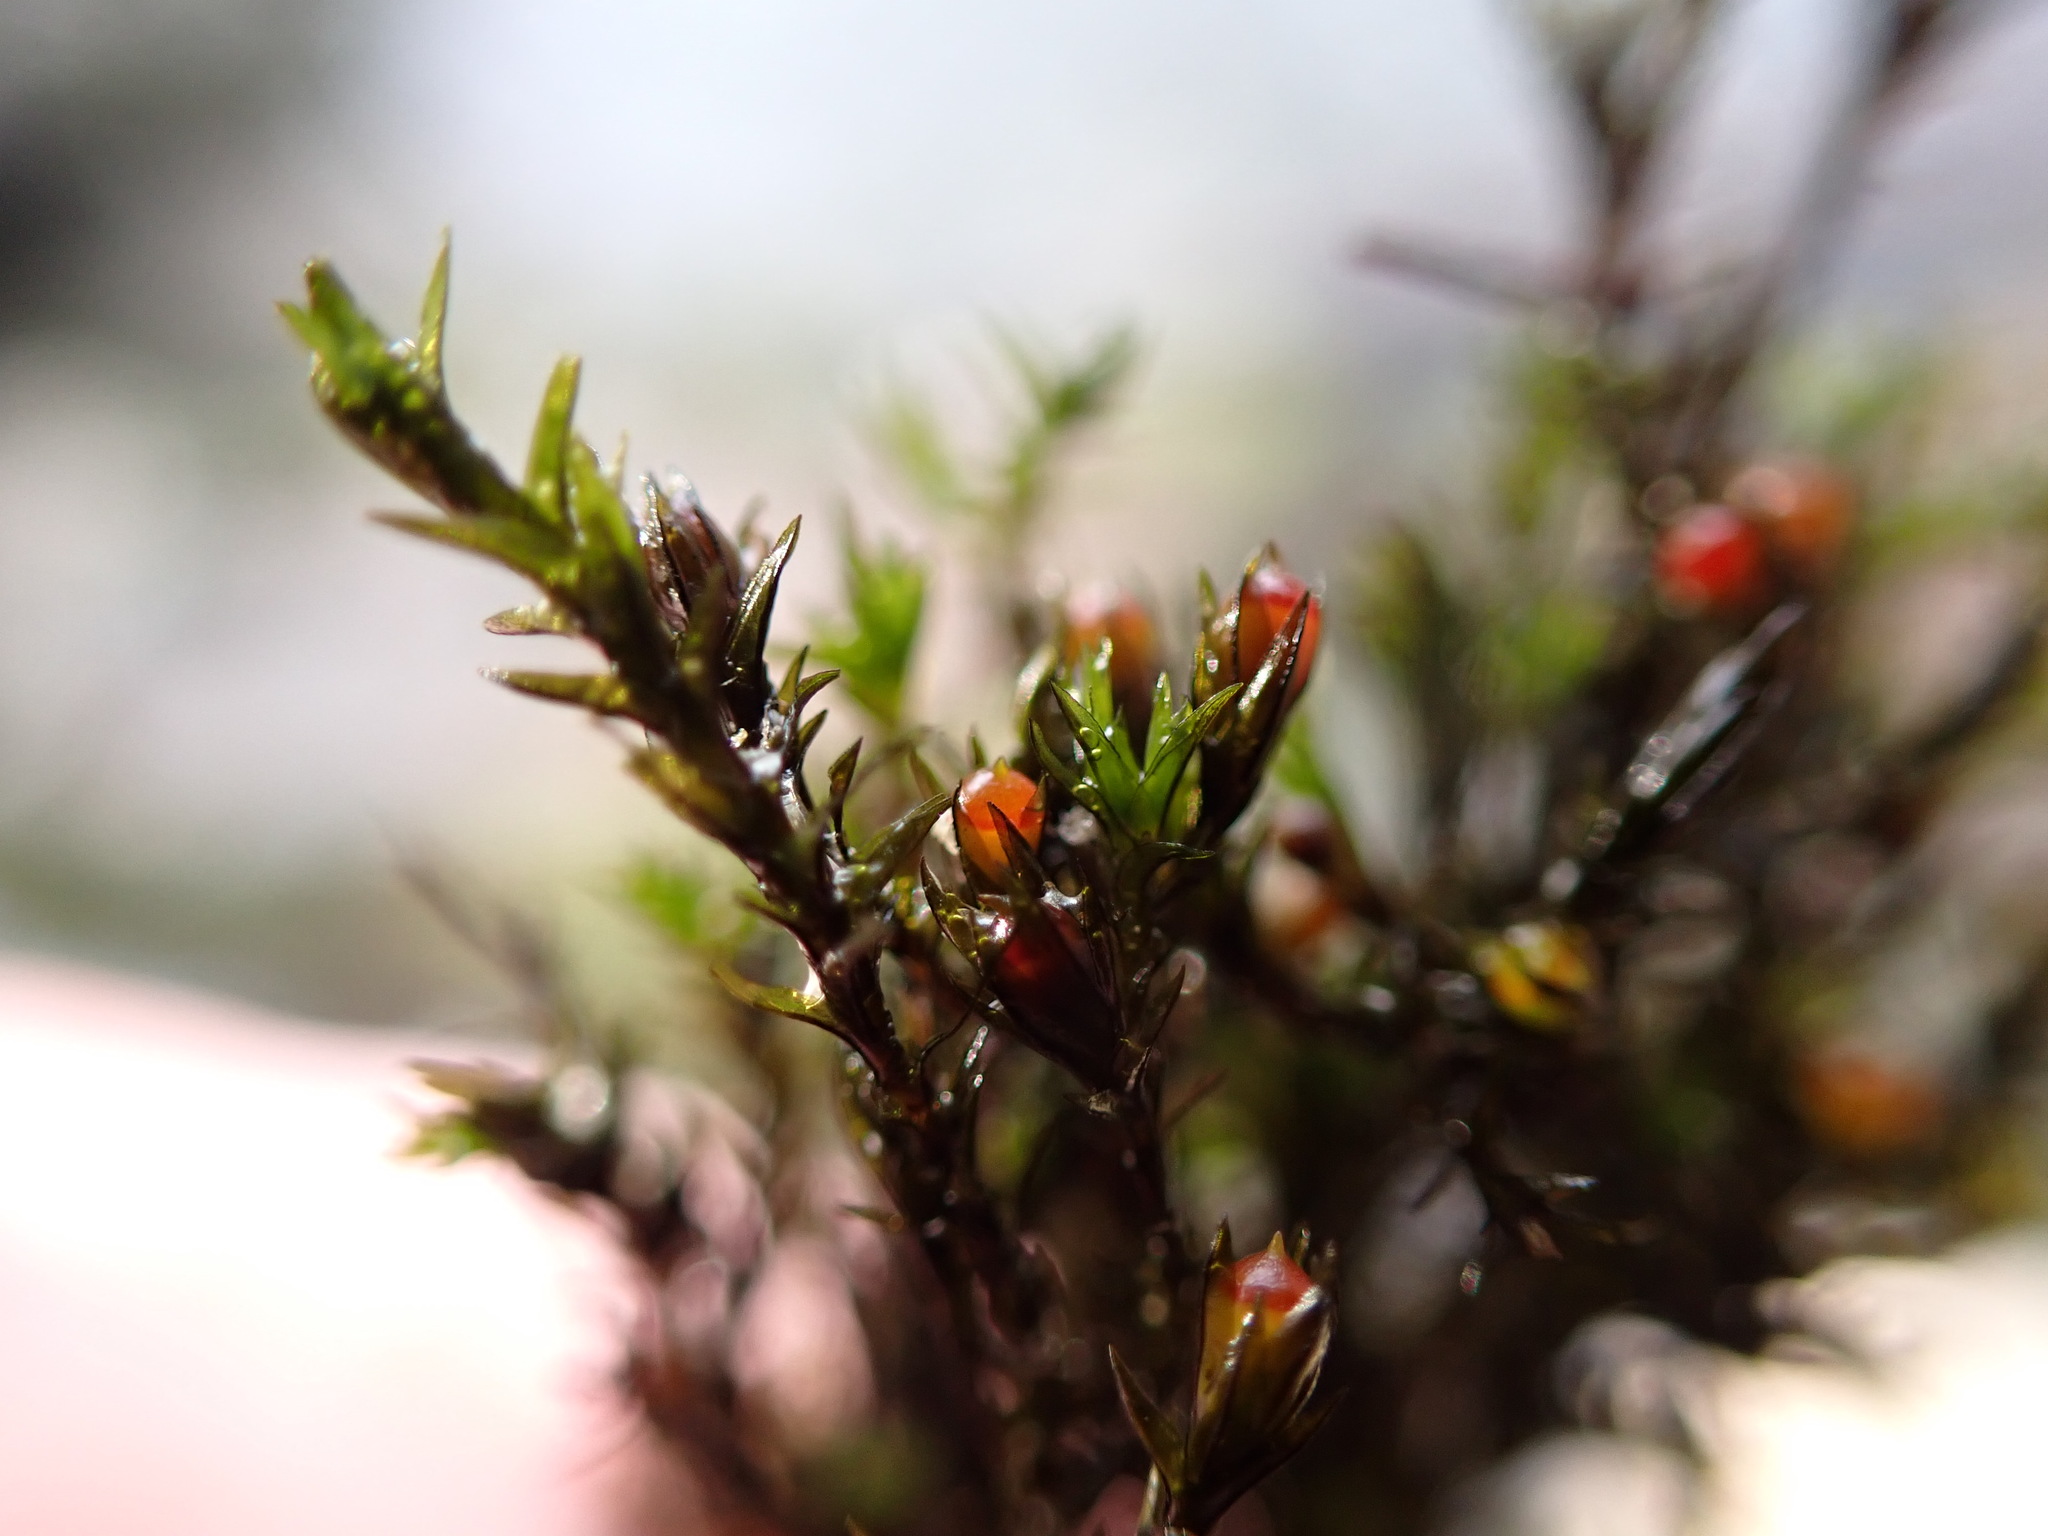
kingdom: Plantae
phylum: Bryophyta
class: Bryopsida
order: Grimmiales
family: Grimmiaceae
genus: Schistidium
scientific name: Schistidium rivulare
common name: River bloom moss
